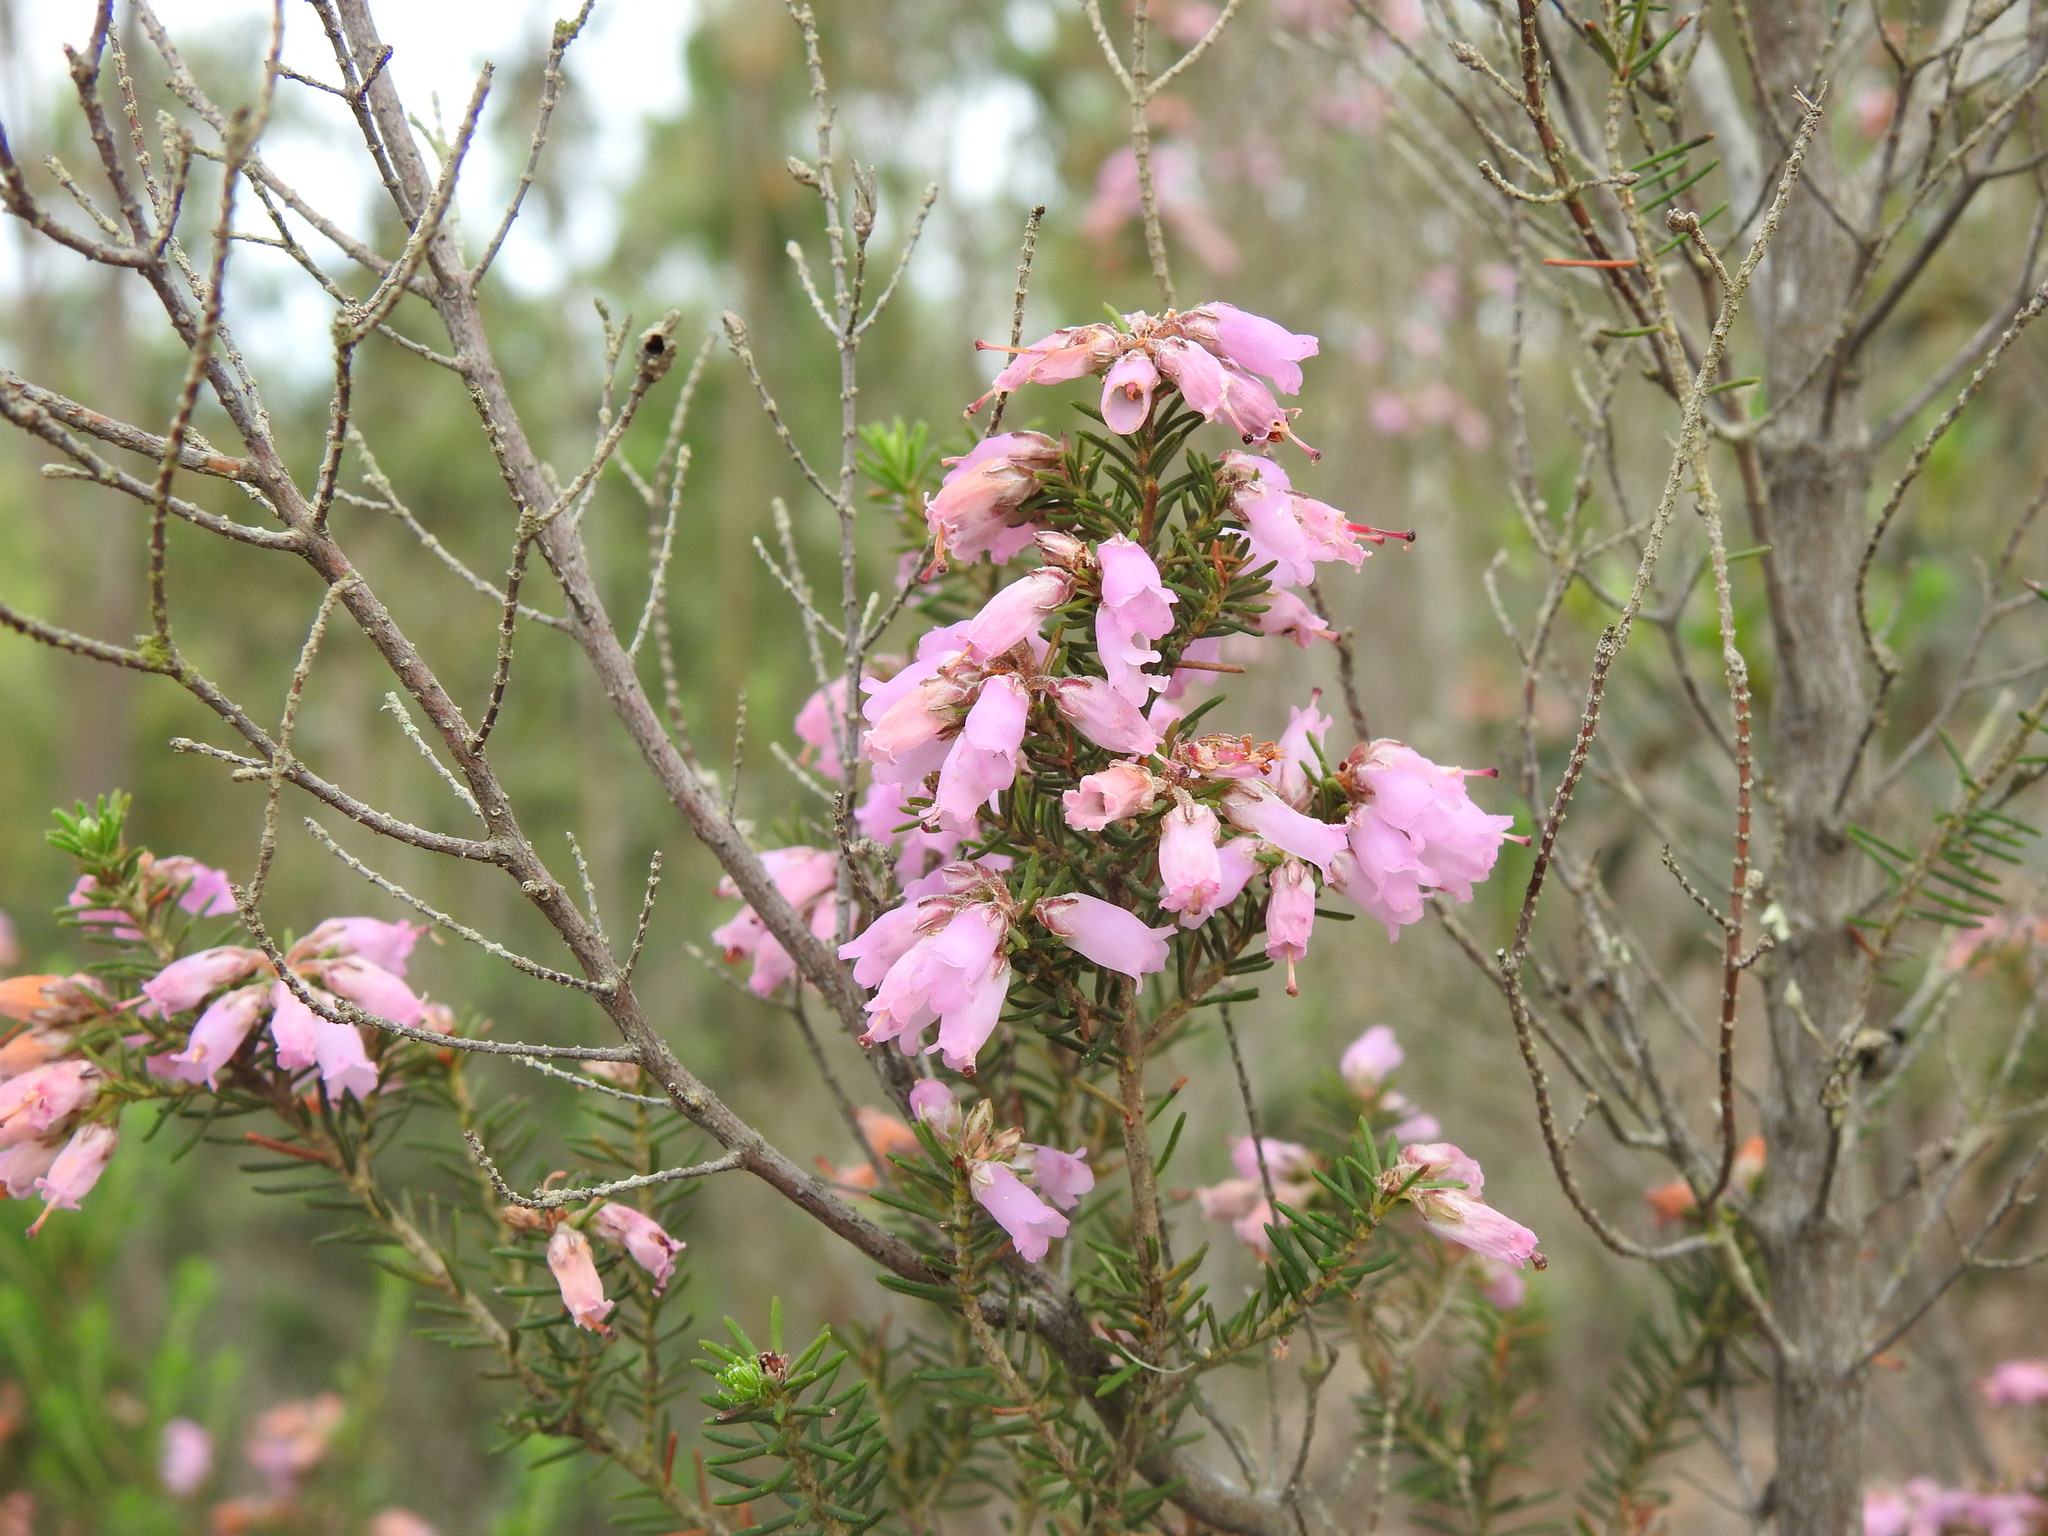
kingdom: Plantae
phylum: Tracheophyta
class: Magnoliopsida
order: Ericales
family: Ericaceae
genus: Erica
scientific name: Erica australis
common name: Spanish heath
